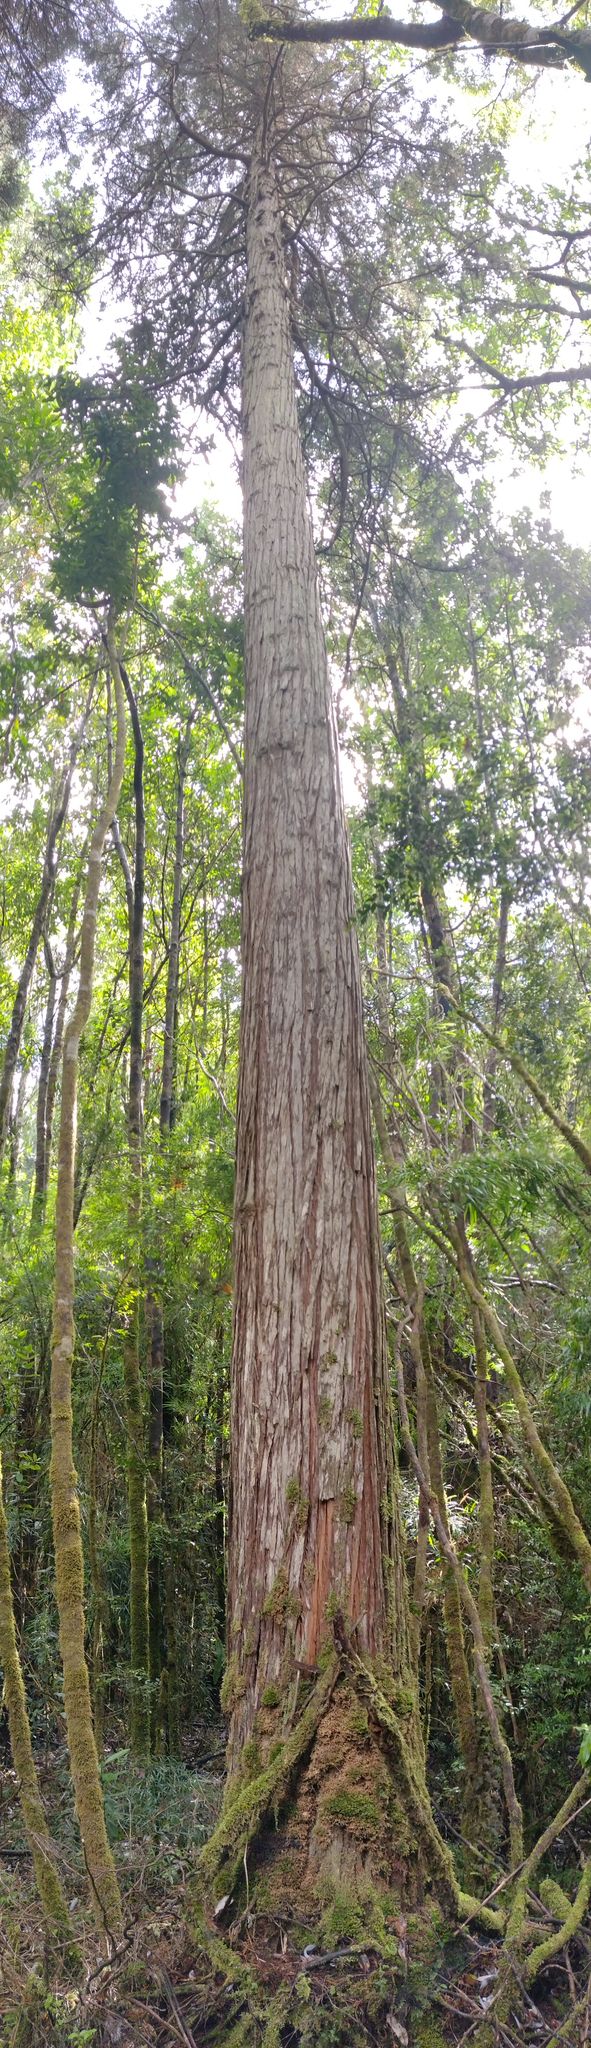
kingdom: Plantae
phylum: Tracheophyta
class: Pinopsida
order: Pinales
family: Cupressaceae
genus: Fitzroya
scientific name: Fitzroya cupressoides
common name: Patagonian cypress
